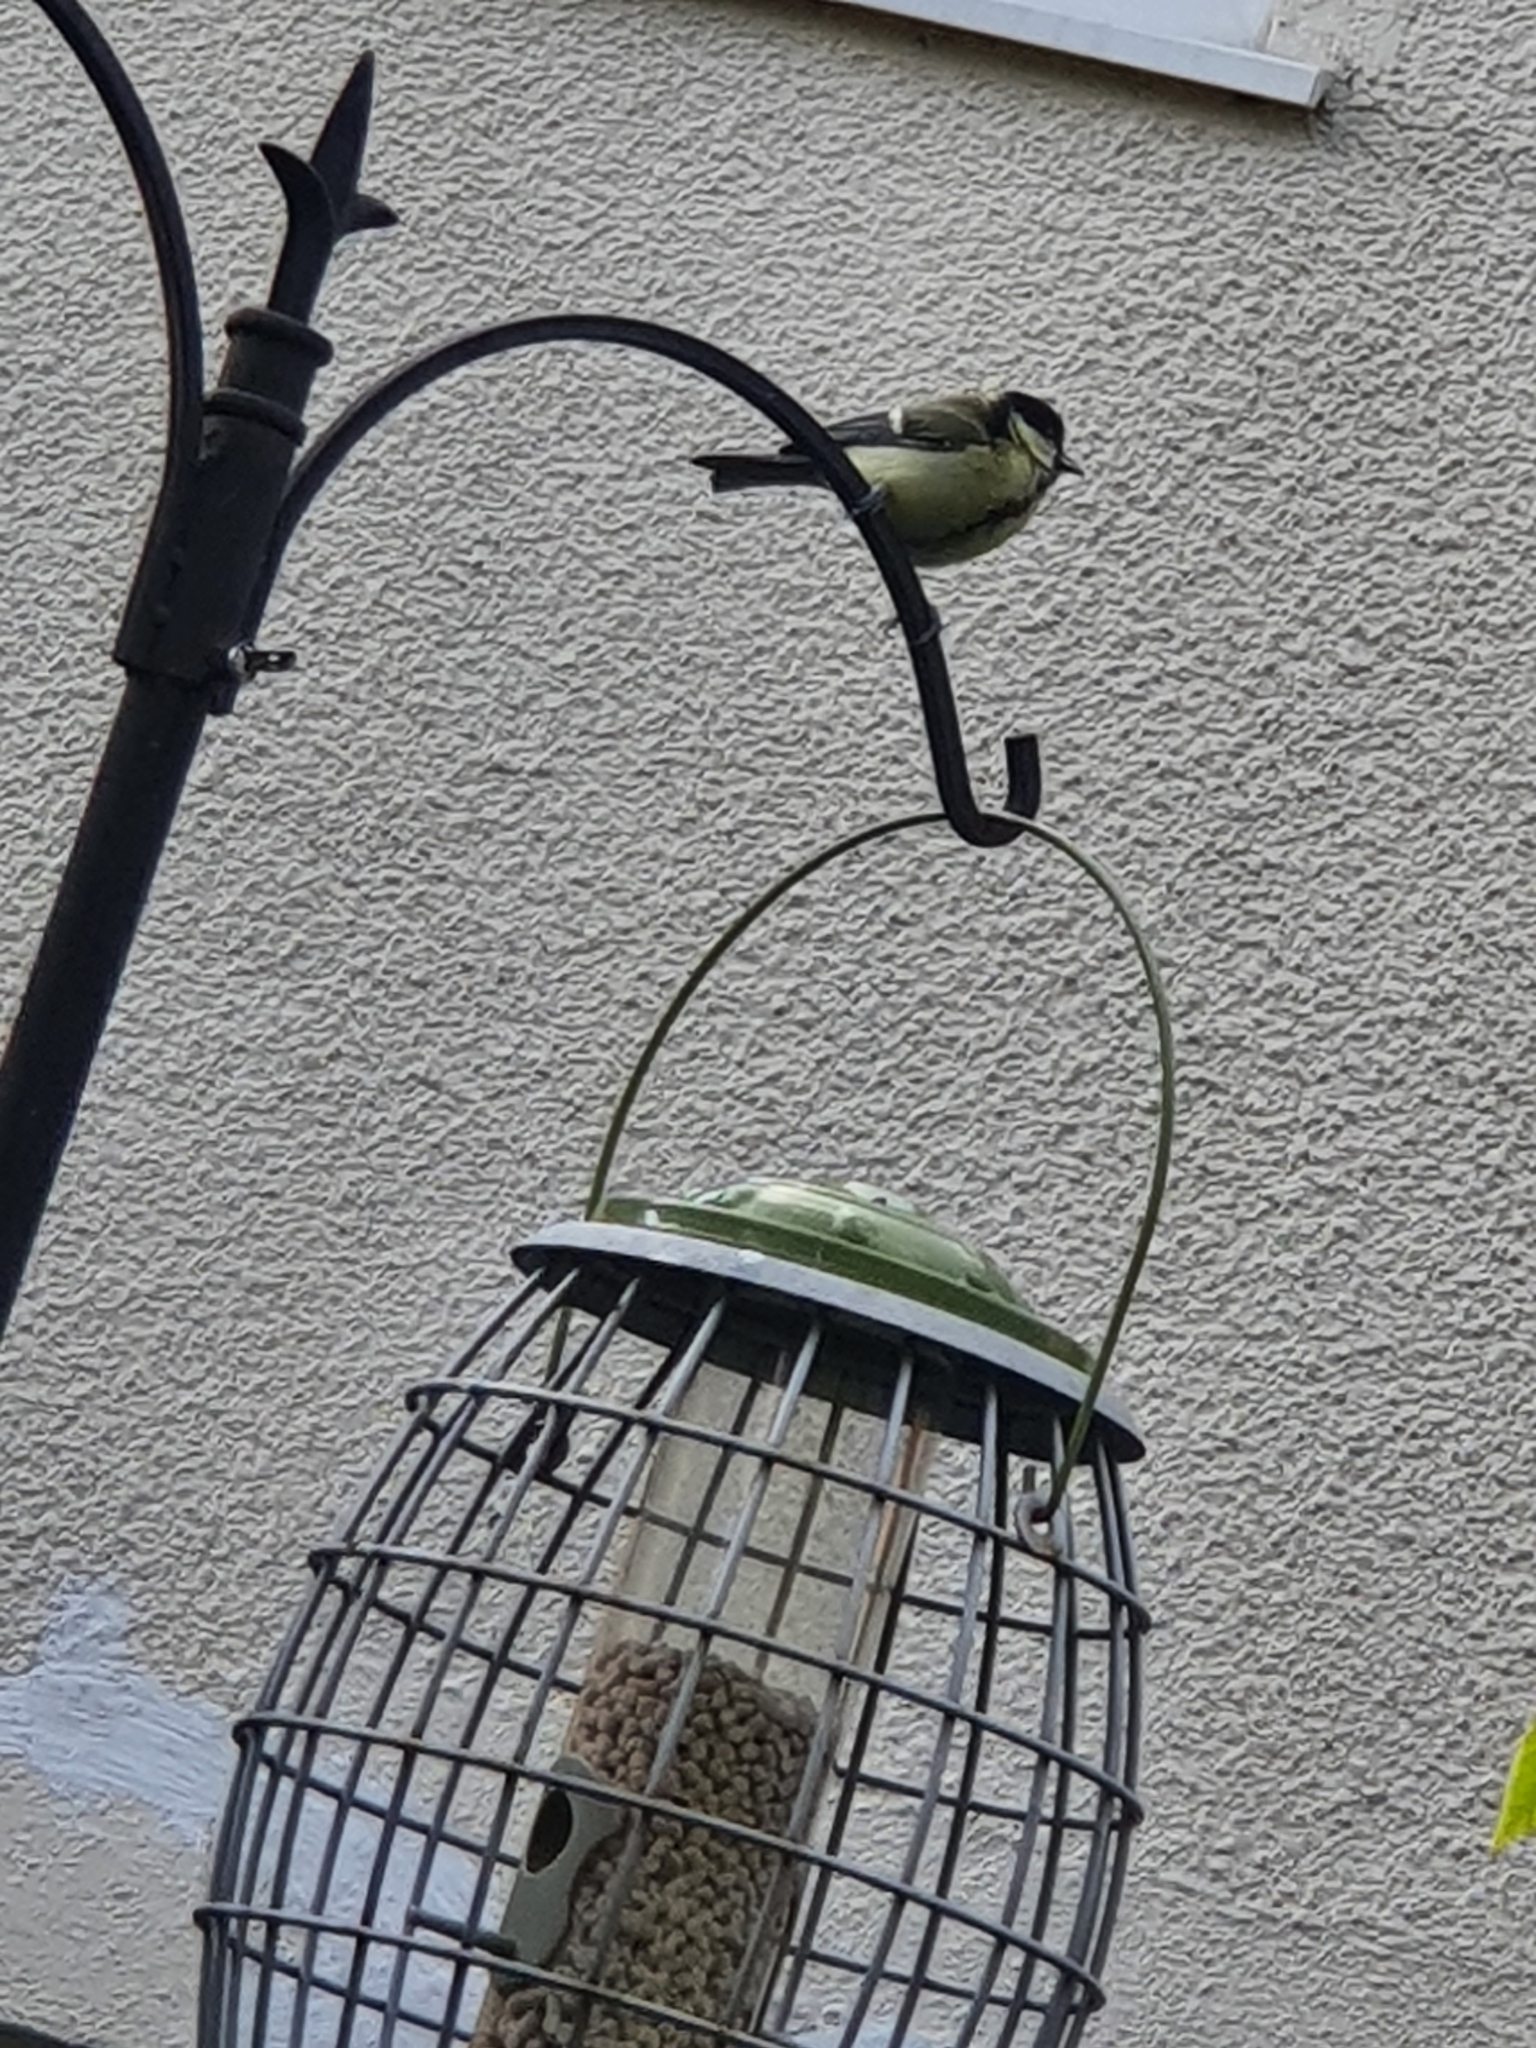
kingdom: Animalia
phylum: Chordata
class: Aves
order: Passeriformes
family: Paridae
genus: Parus
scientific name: Parus major
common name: Great tit
